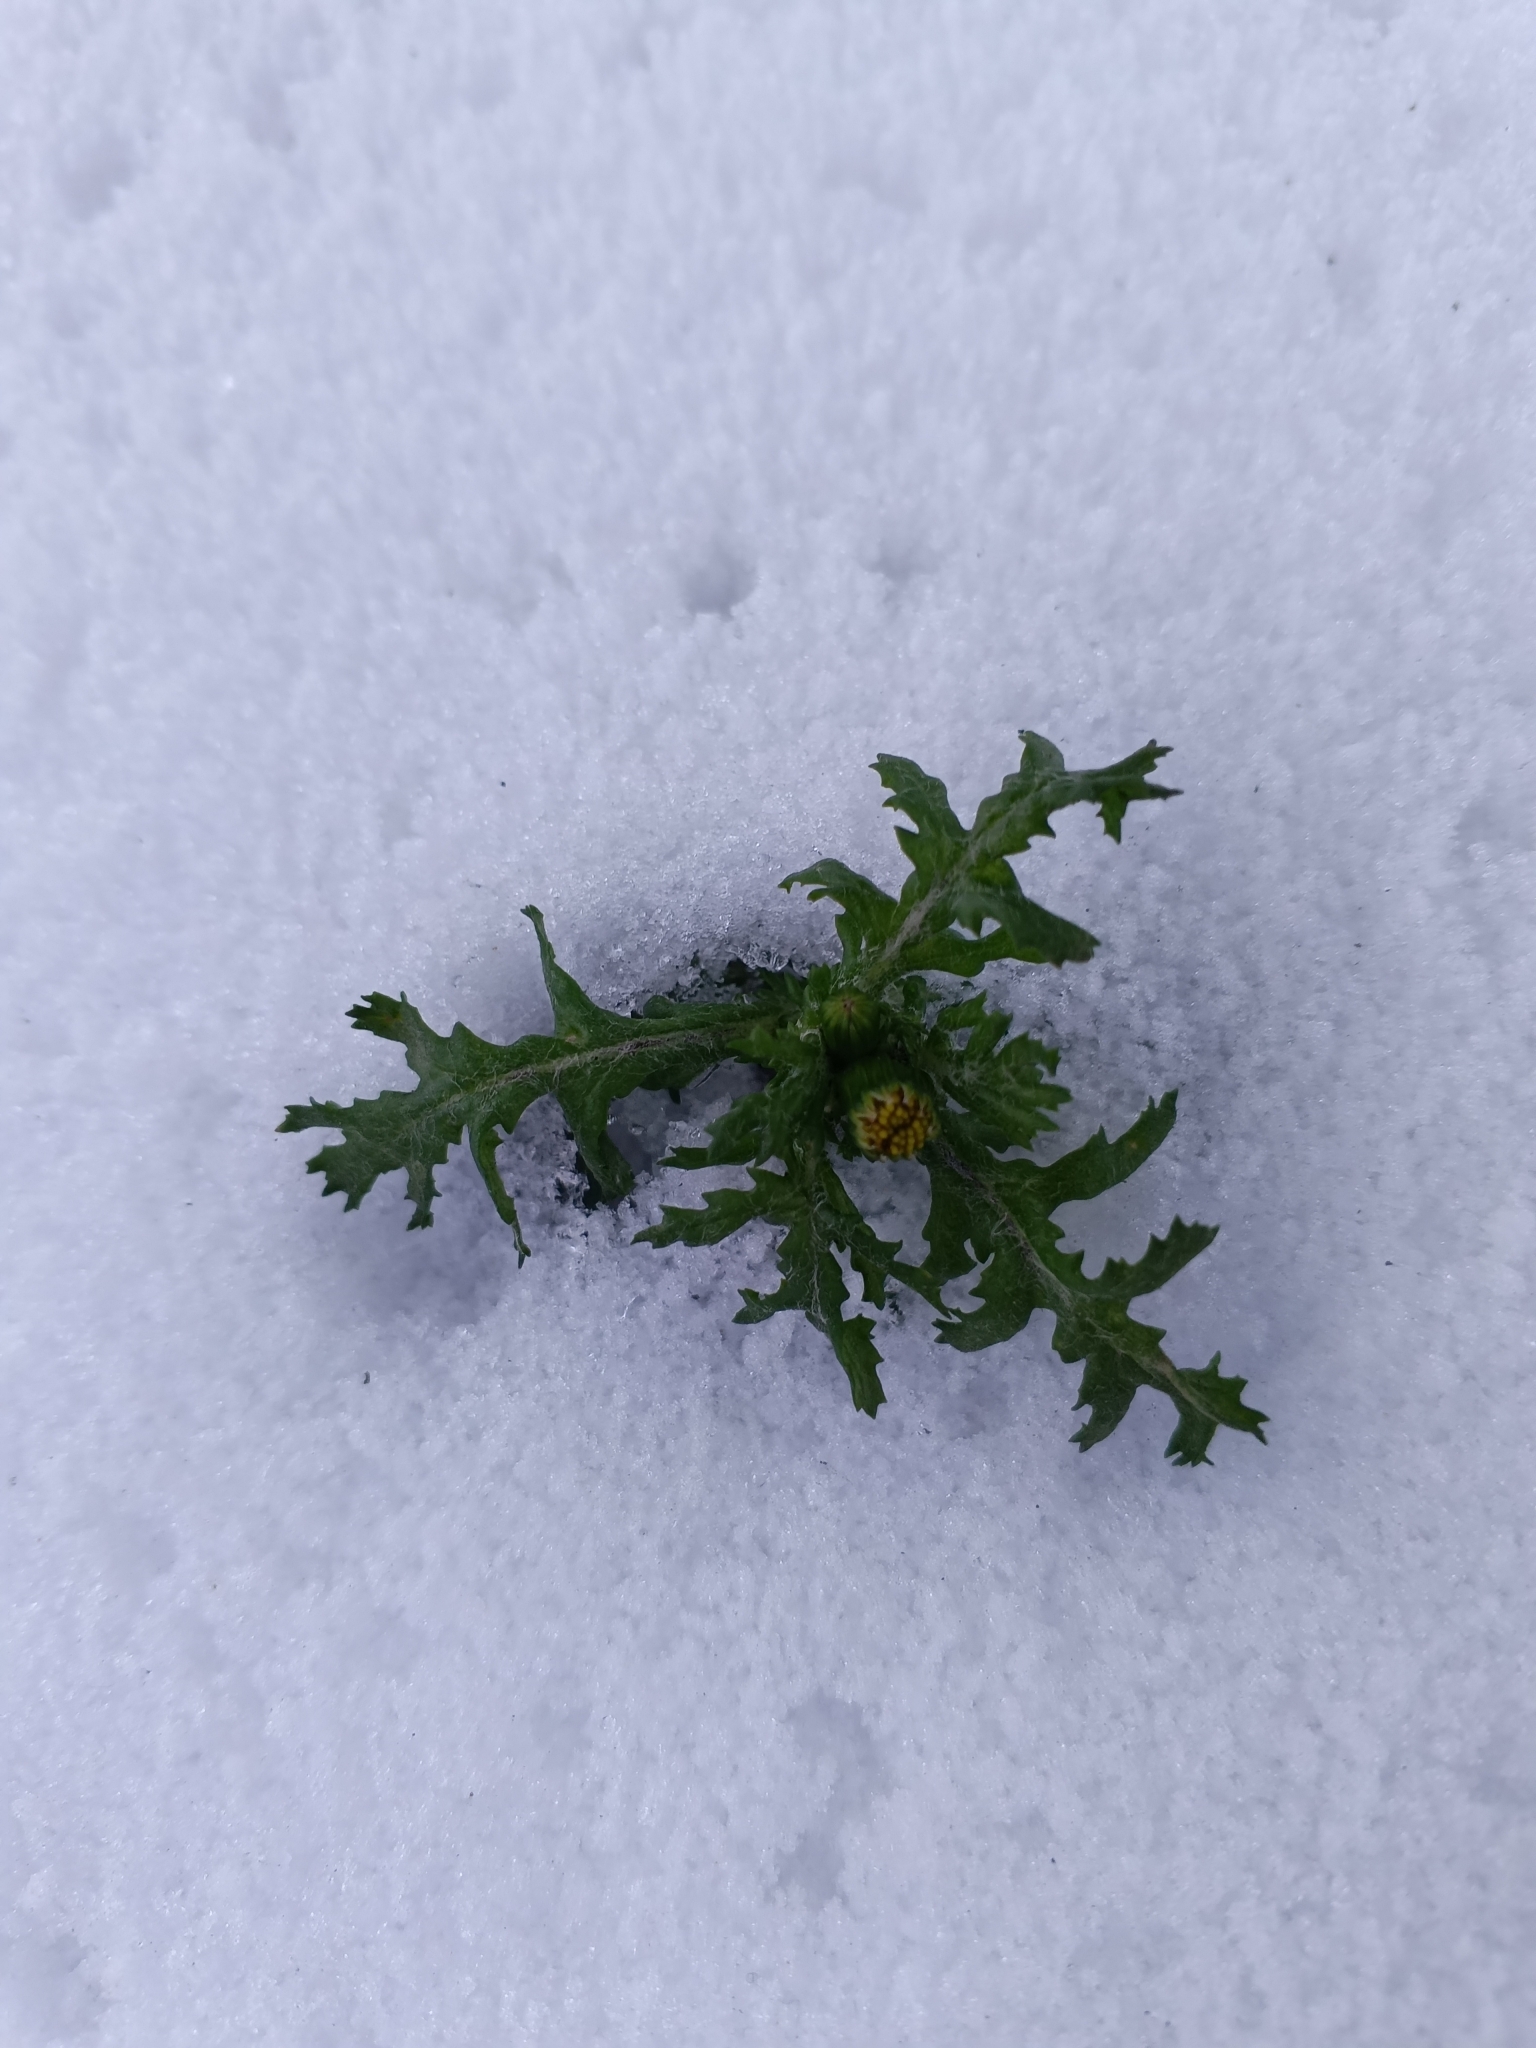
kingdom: Plantae
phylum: Tracheophyta
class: Magnoliopsida
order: Asterales
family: Asteraceae
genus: Senecio
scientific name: Senecio vulgaris
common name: Old-man-in-the-spring
